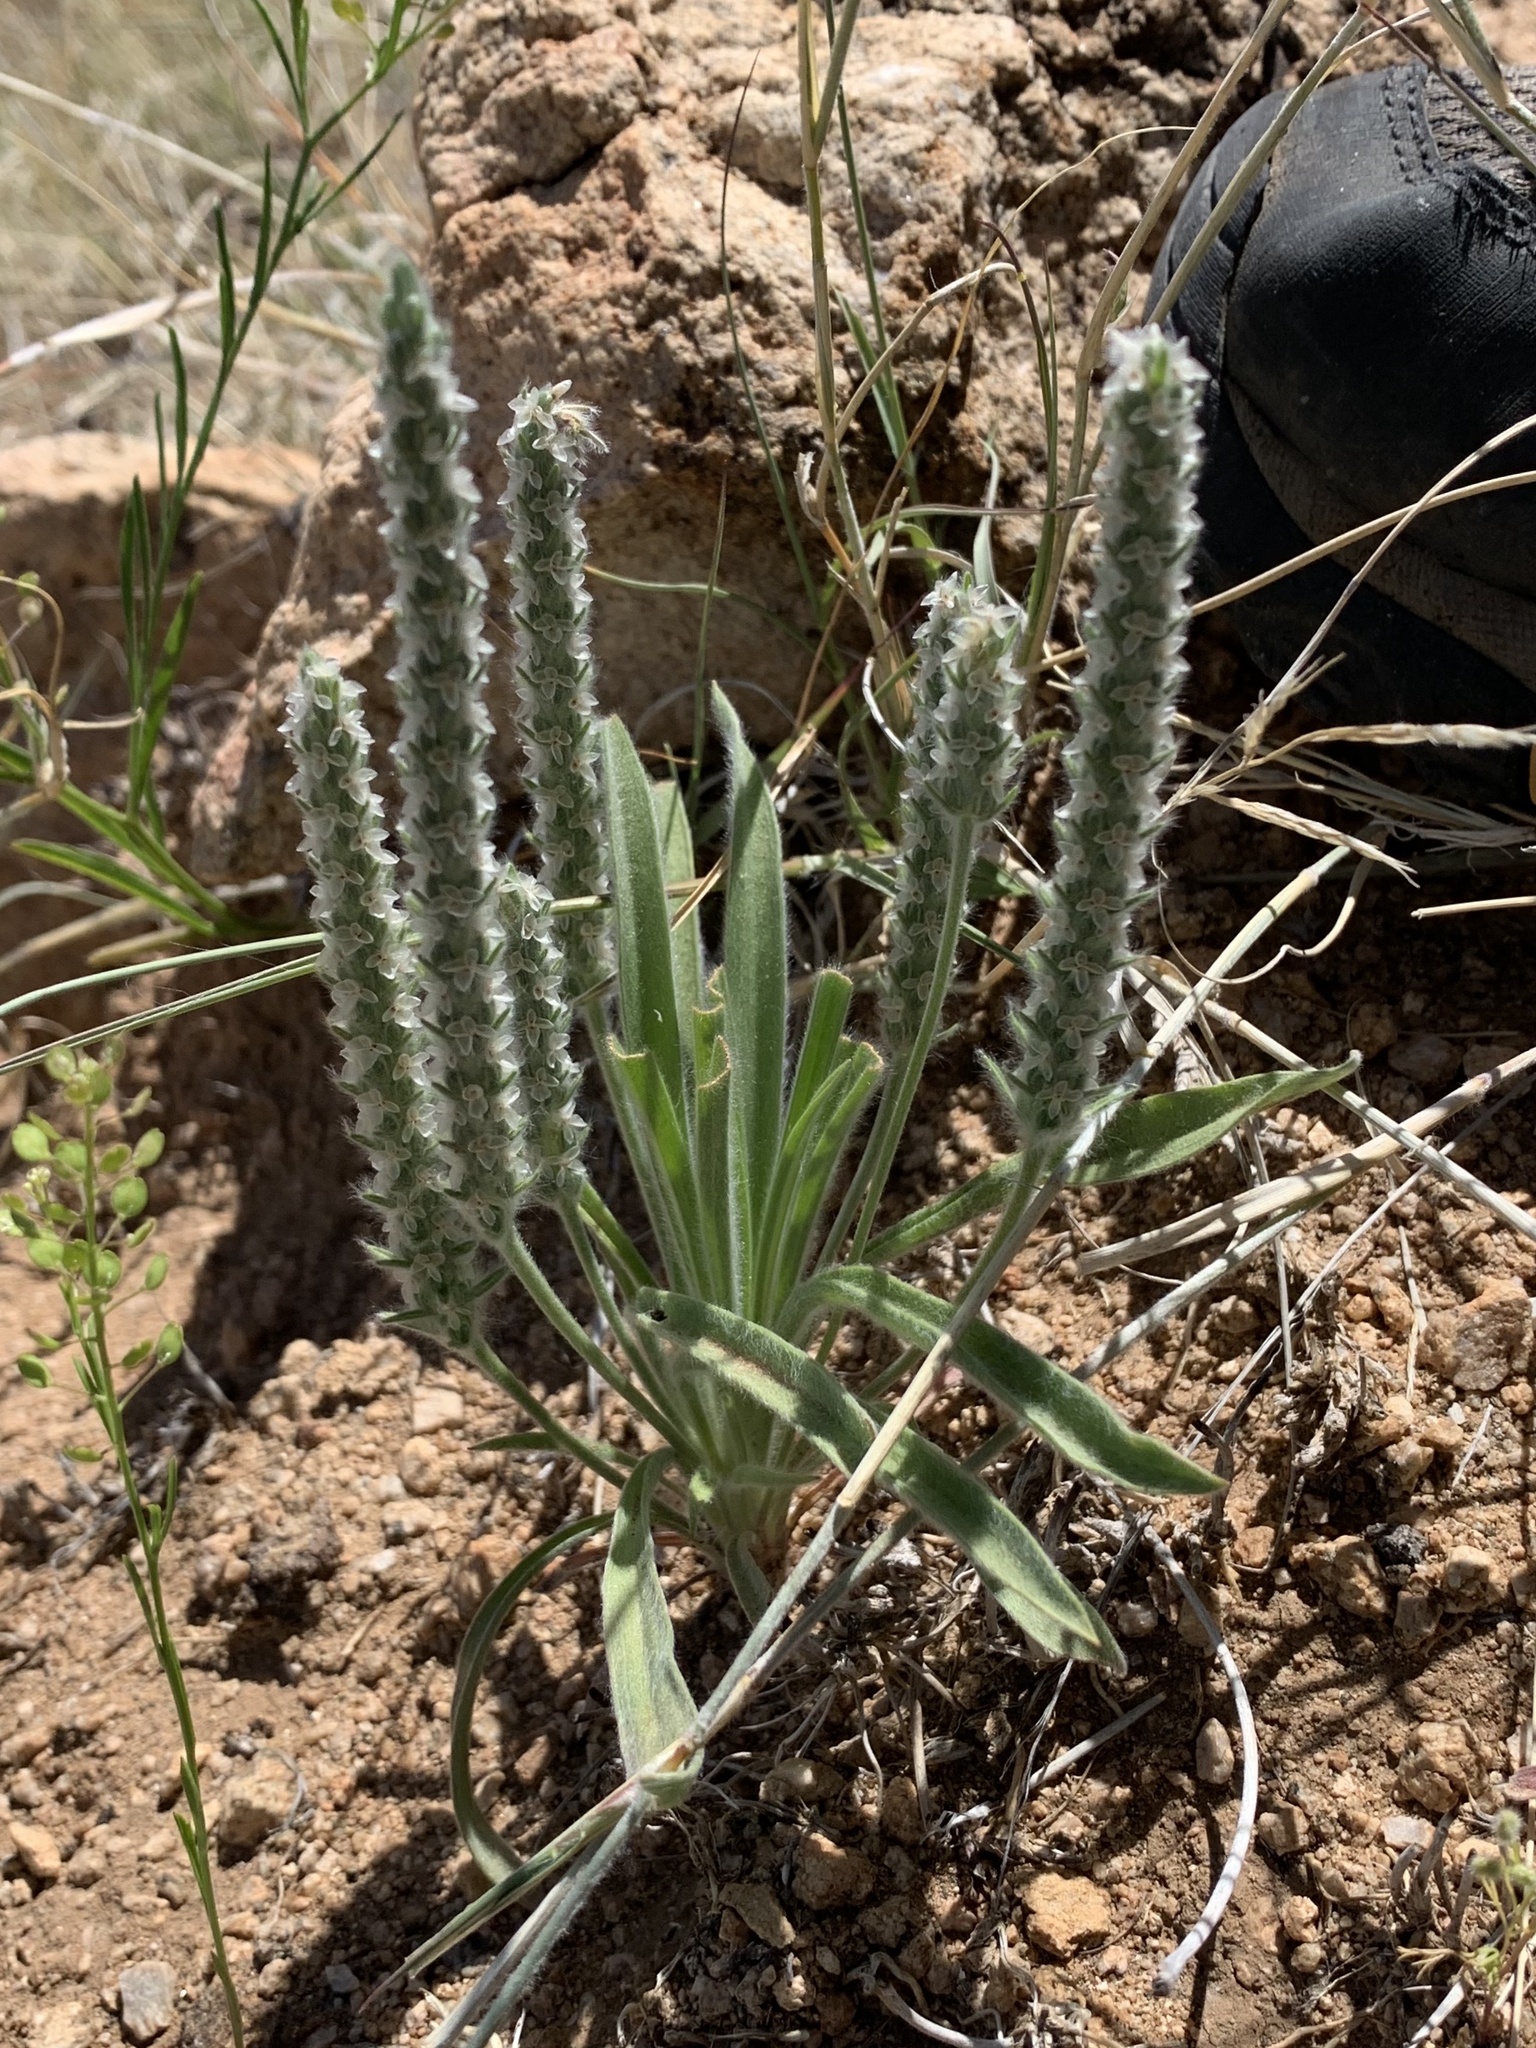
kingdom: Plantae
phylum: Tracheophyta
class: Magnoliopsida
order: Lamiales
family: Plantaginaceae
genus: Plantago
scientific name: Plantago patagonica
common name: Patagonia indian-wheat
